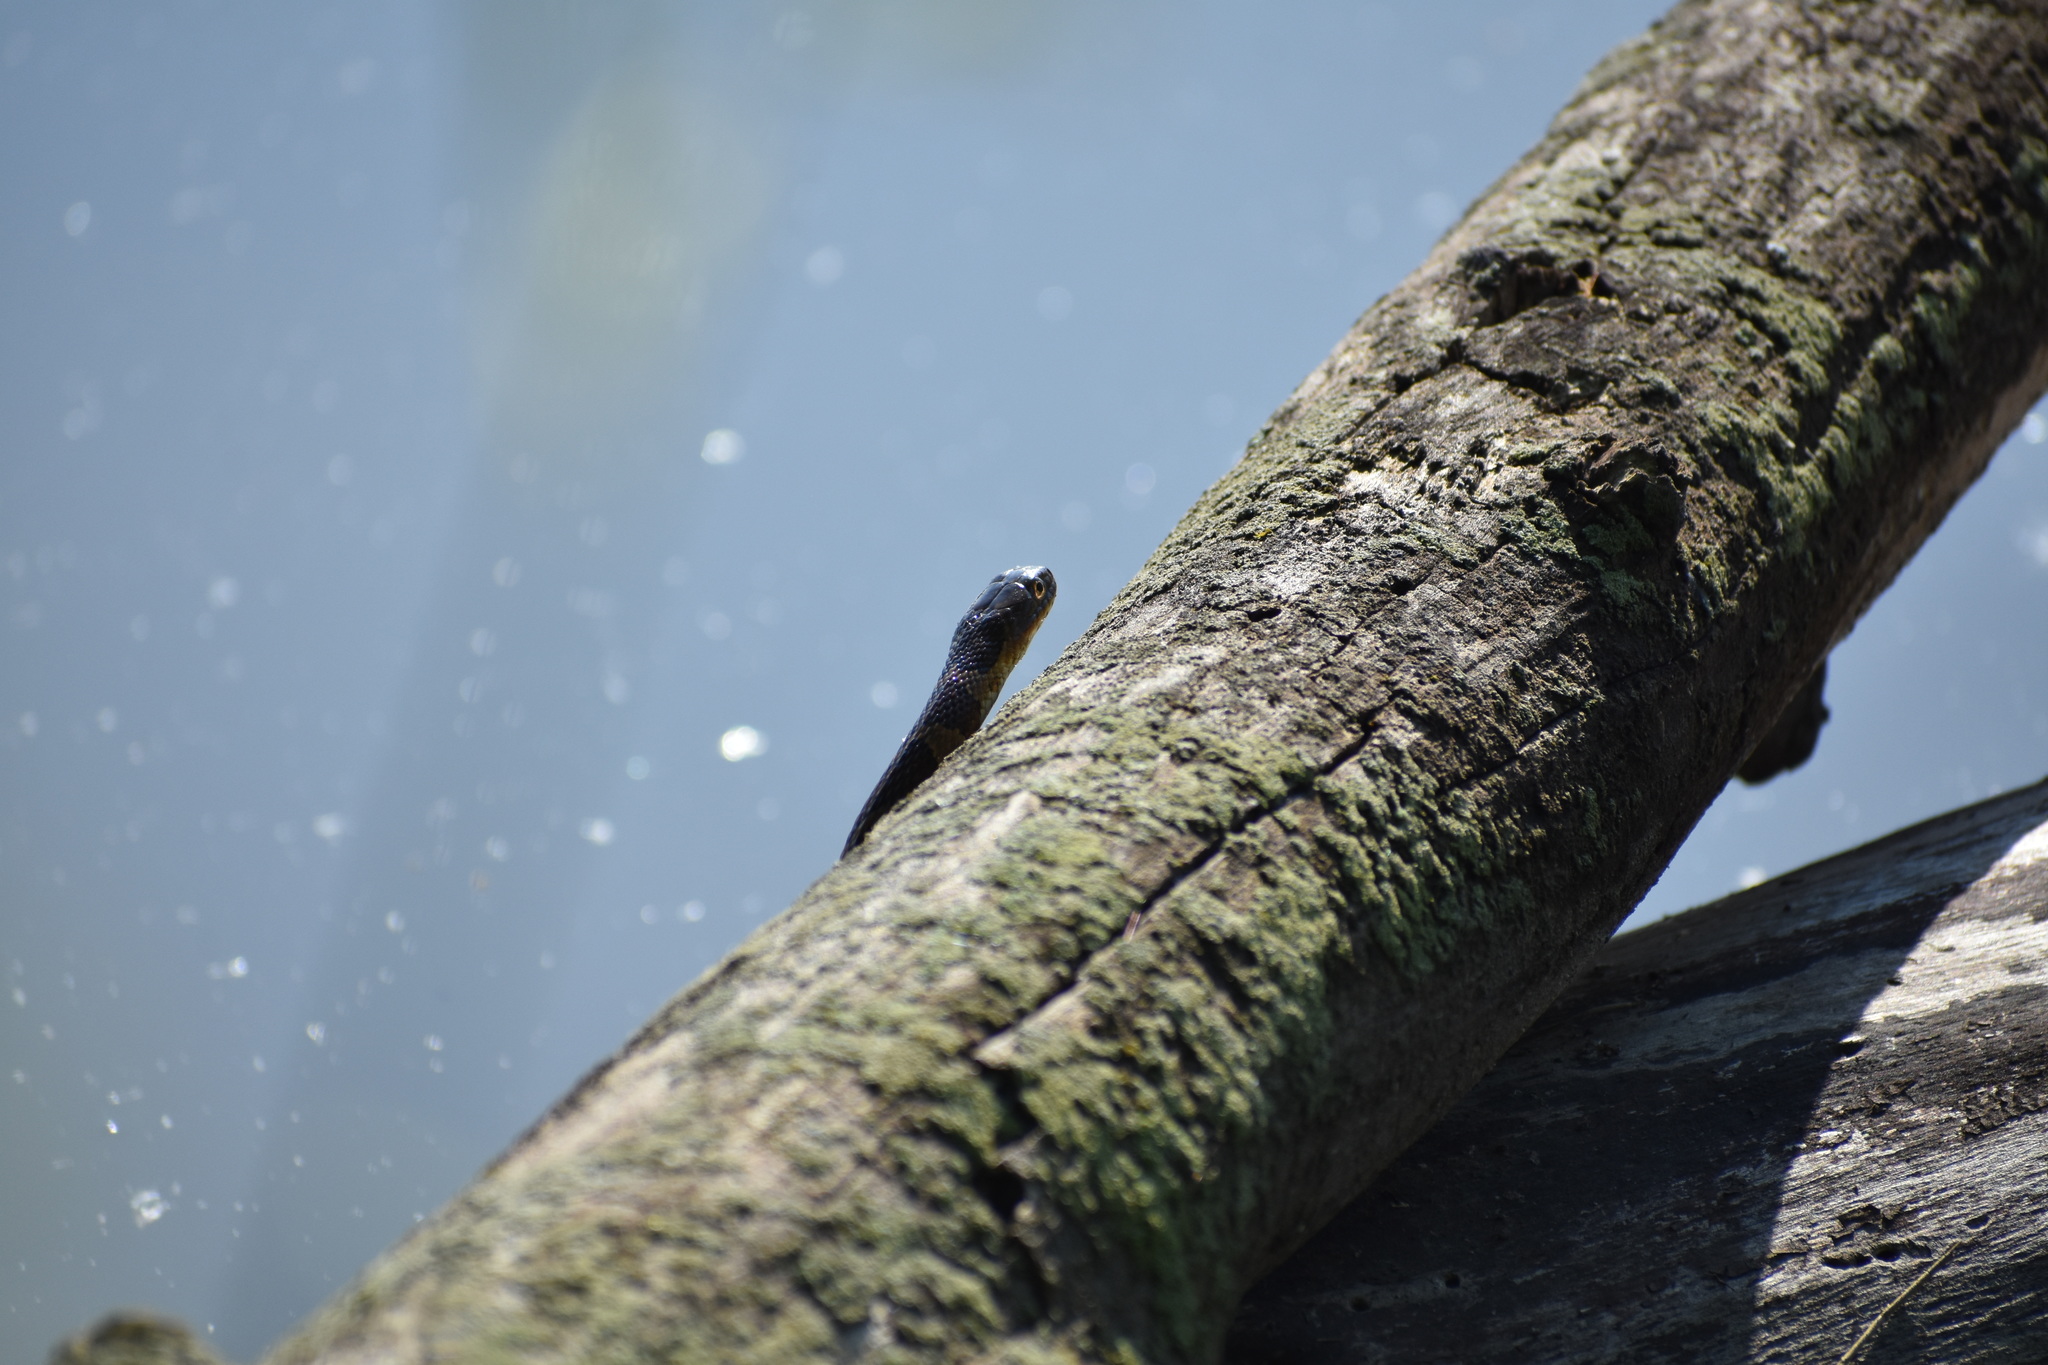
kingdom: Animalia
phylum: Chordata
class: Squamata
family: Colubridae
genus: Nerodia
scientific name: Nerodia sipedon
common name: Northern water snake
